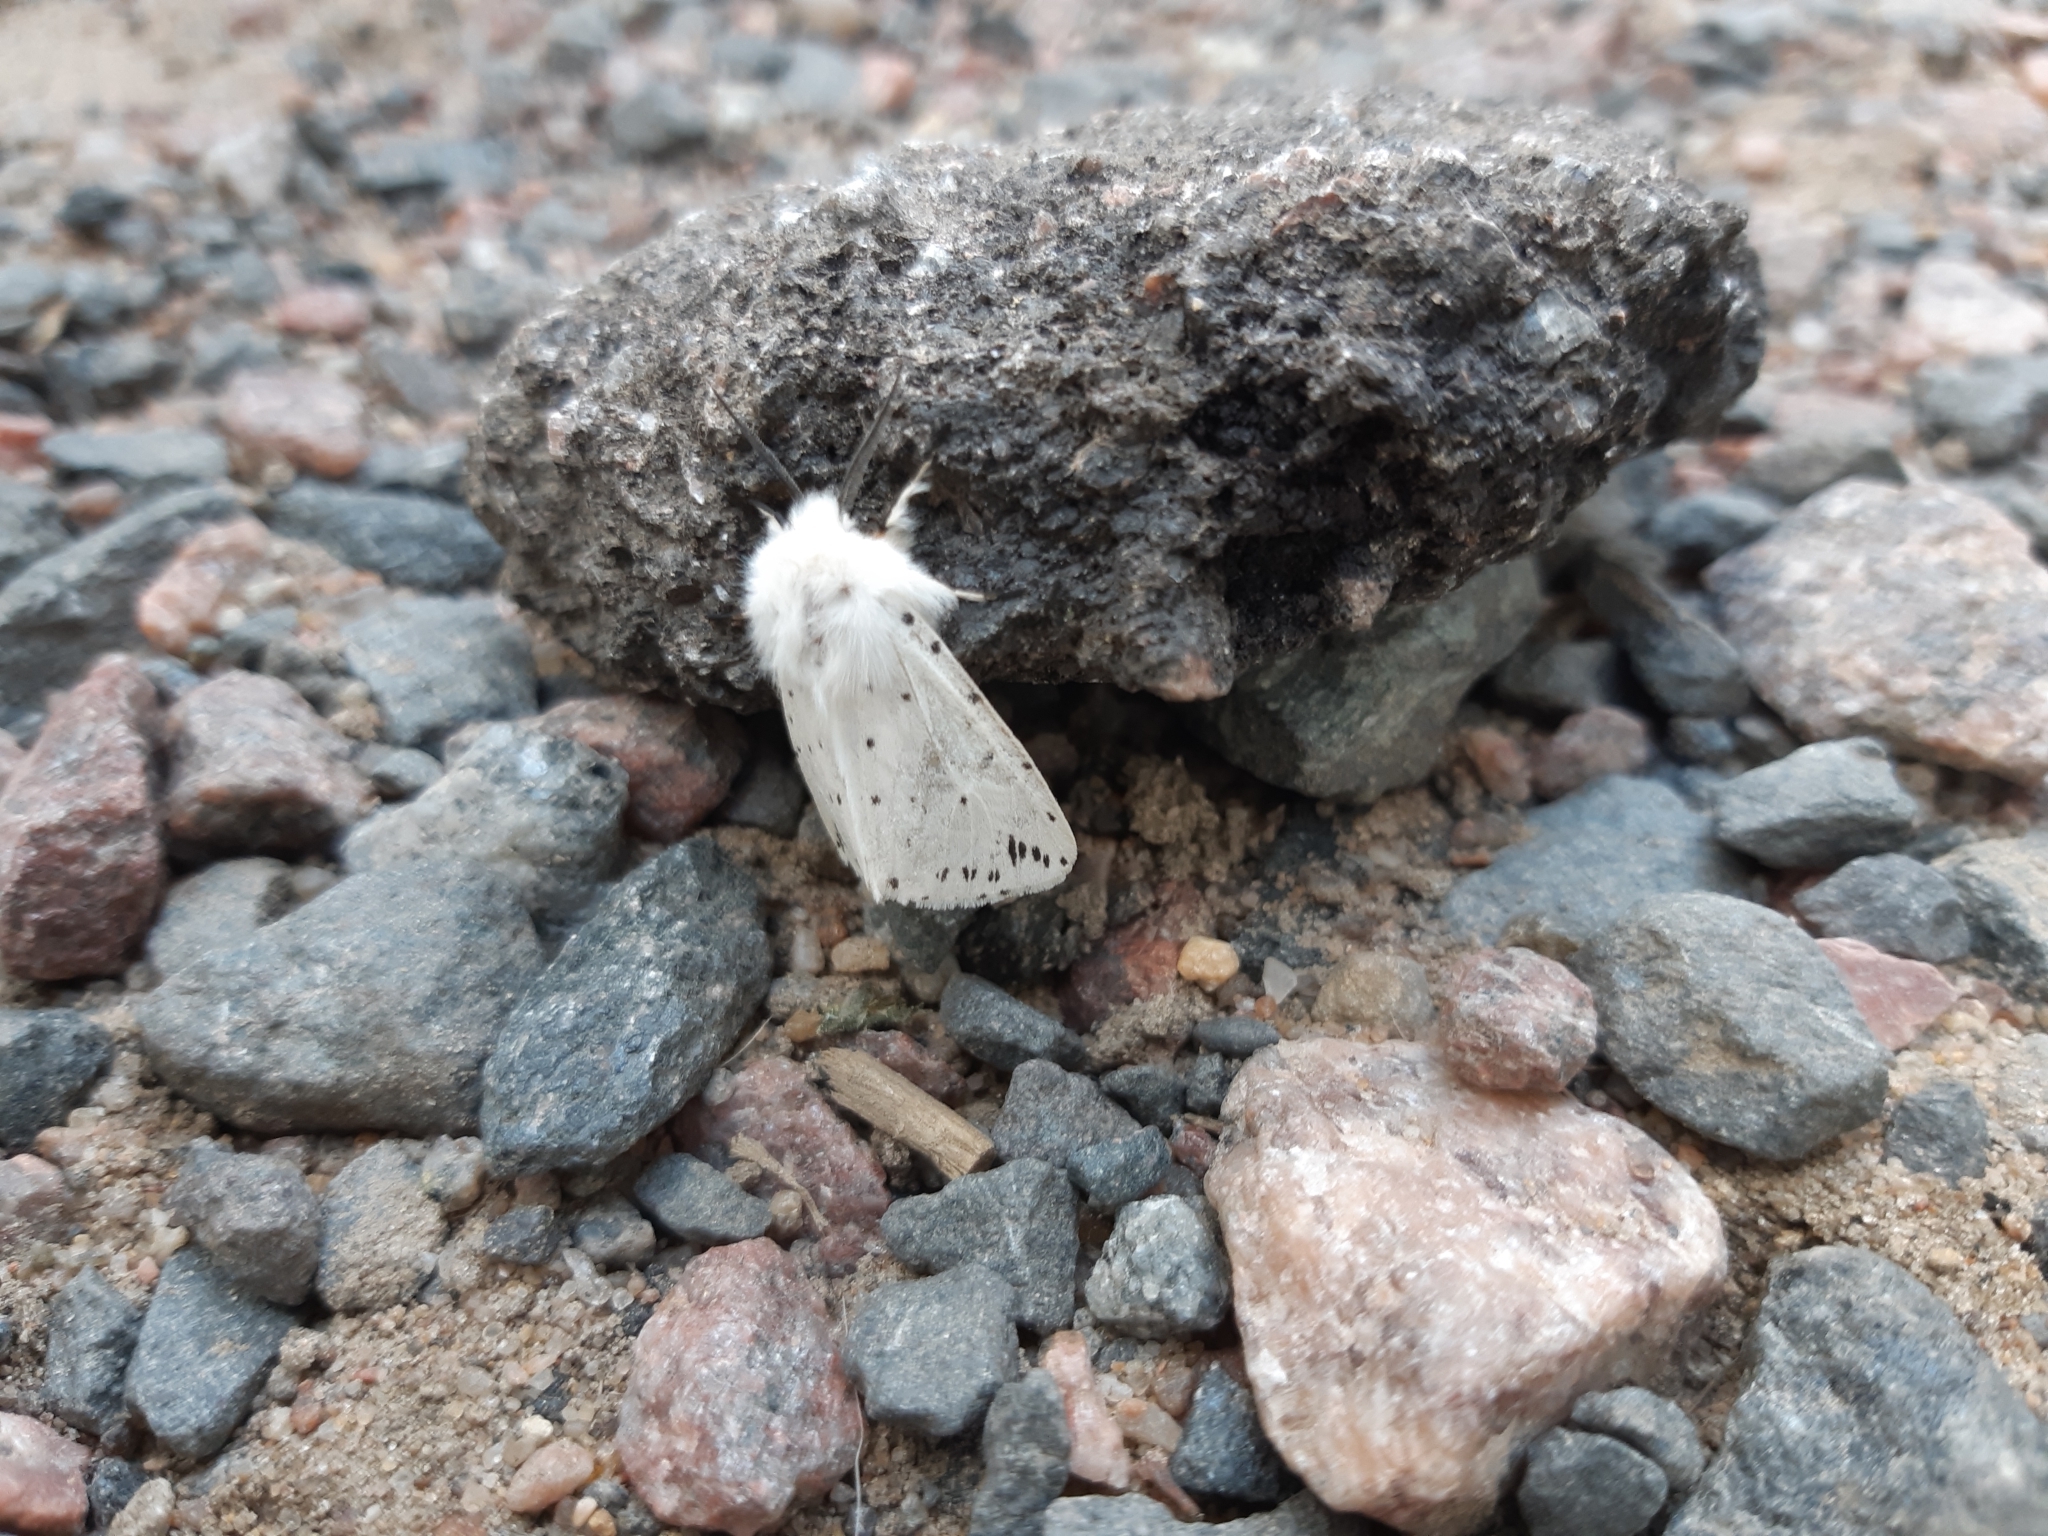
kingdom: Animalia
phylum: Arthropoda
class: Insecta
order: Lepidoptera
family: Erebidae
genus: Spilosoma
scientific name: Spilosoma lubricipeda
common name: White ermine
